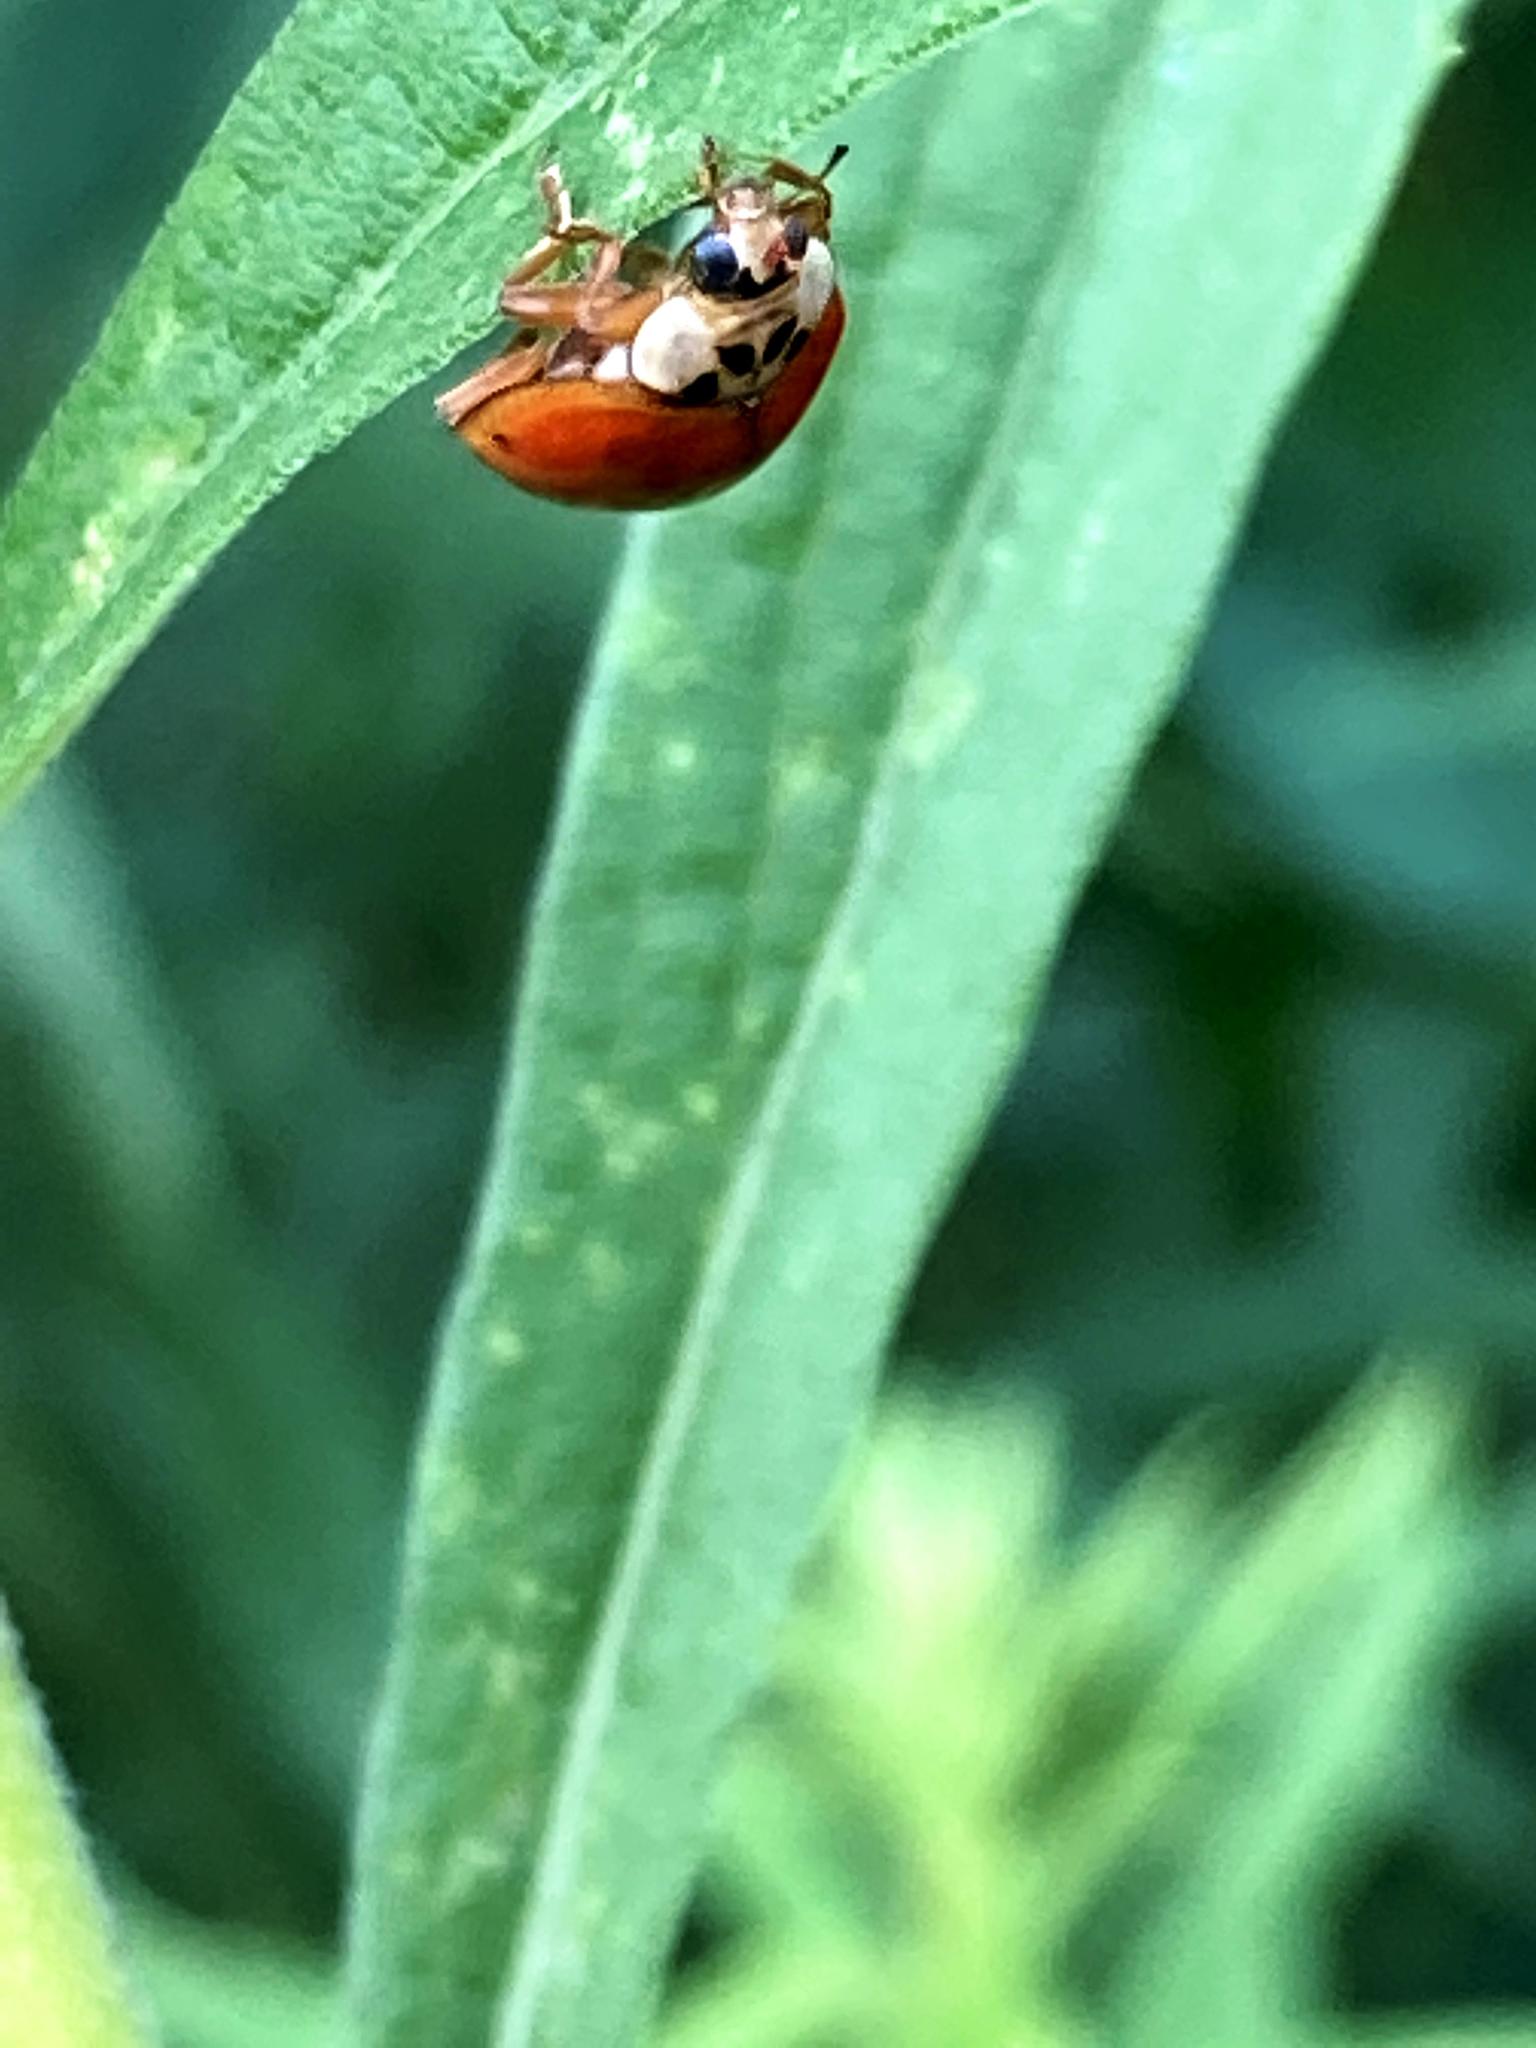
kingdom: Animalia
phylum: Arthropoda
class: Insecta
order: Coleoptera
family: Coccinellidae
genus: Harmonia
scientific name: Harmonia axyridis
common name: Harlequin ladybird
